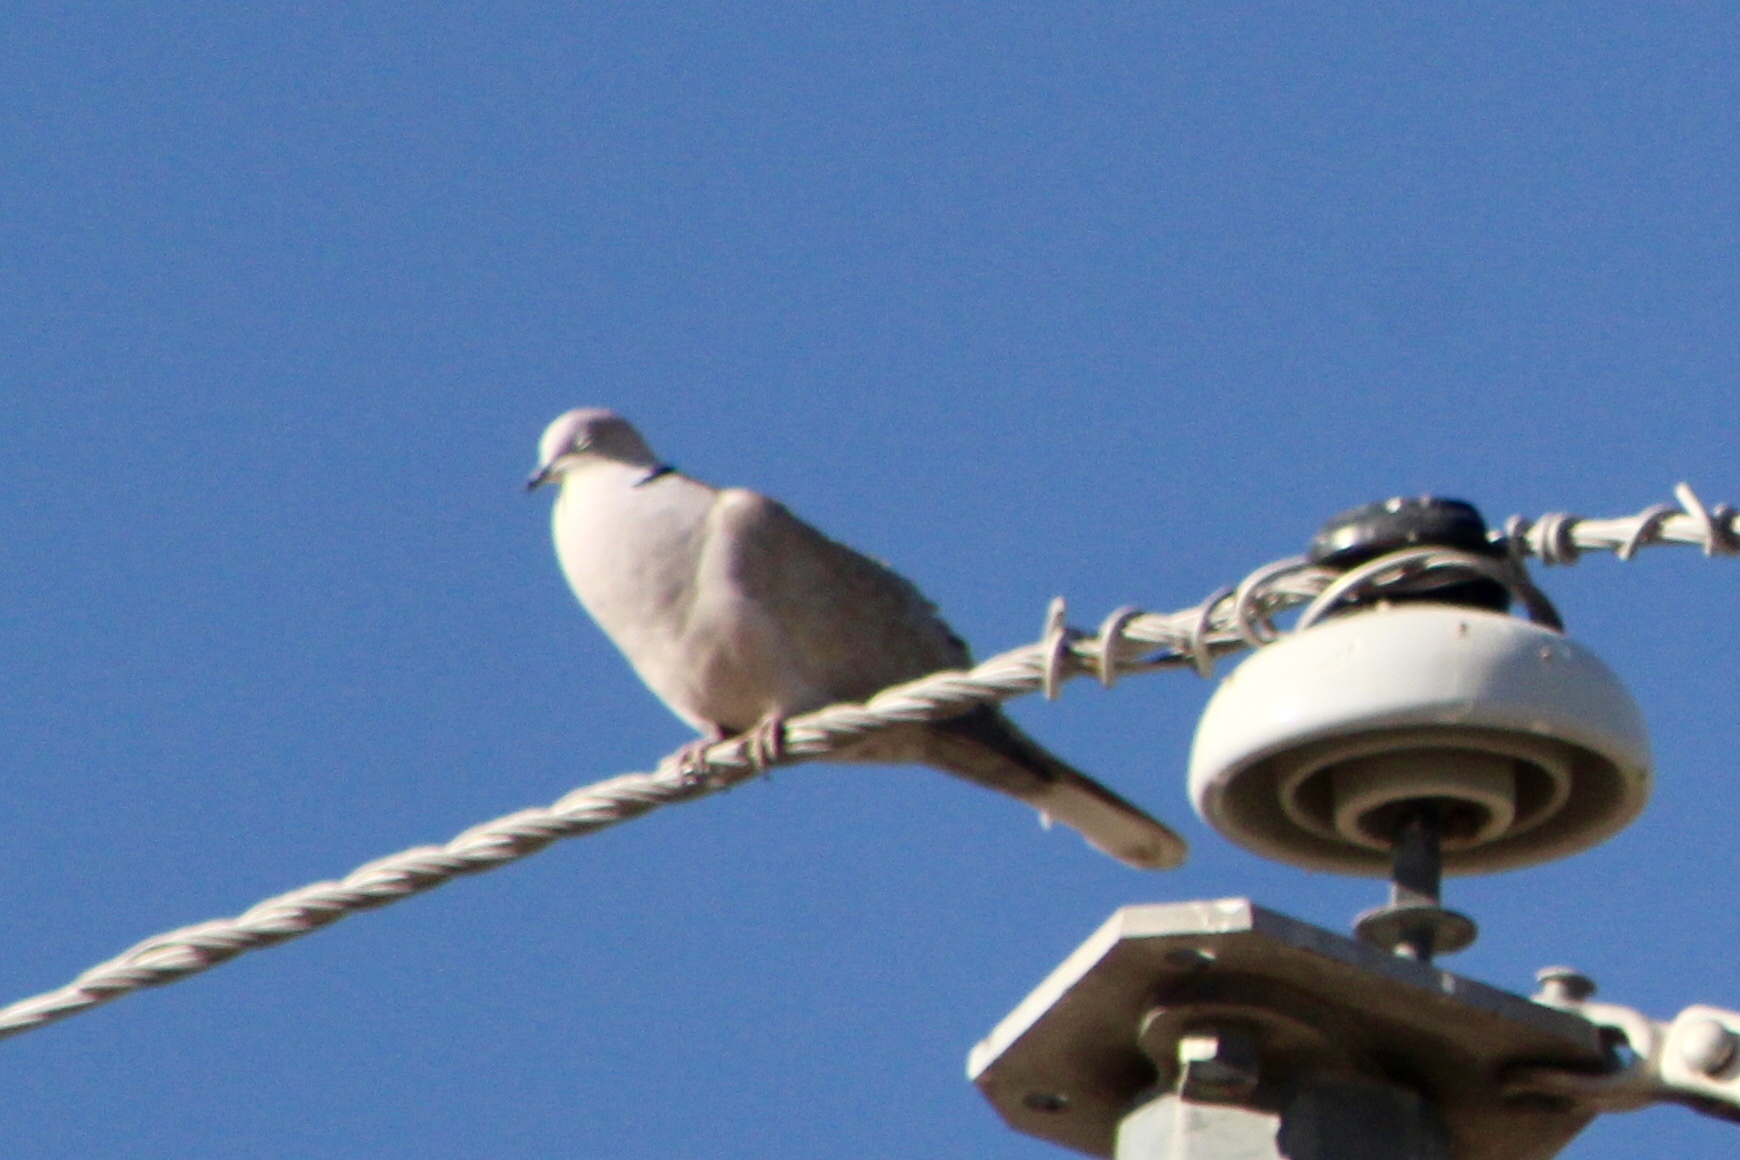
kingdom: Animalia
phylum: Chordata
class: Aves
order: Columbiformes
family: Columbidae
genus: Streptopelia
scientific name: Streptopelia decaocto
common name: Eurasian collared dove
